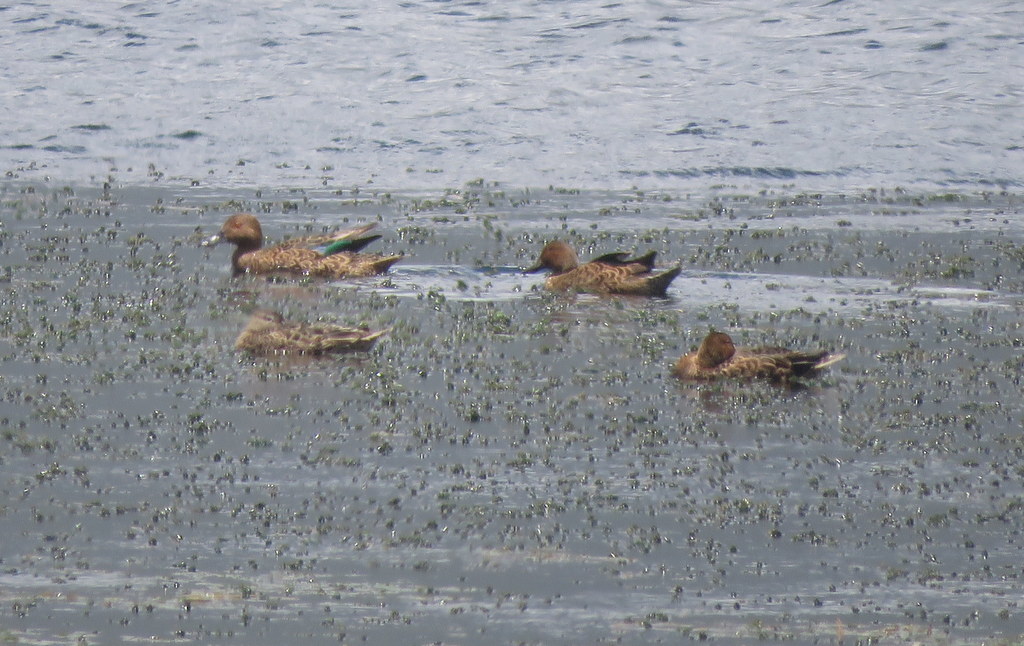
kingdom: Animalia
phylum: Chordata
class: Aves
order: Anseriformes
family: Anatidae
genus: Spatula
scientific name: Spatula cyanoptera
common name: Cinnamon teal
